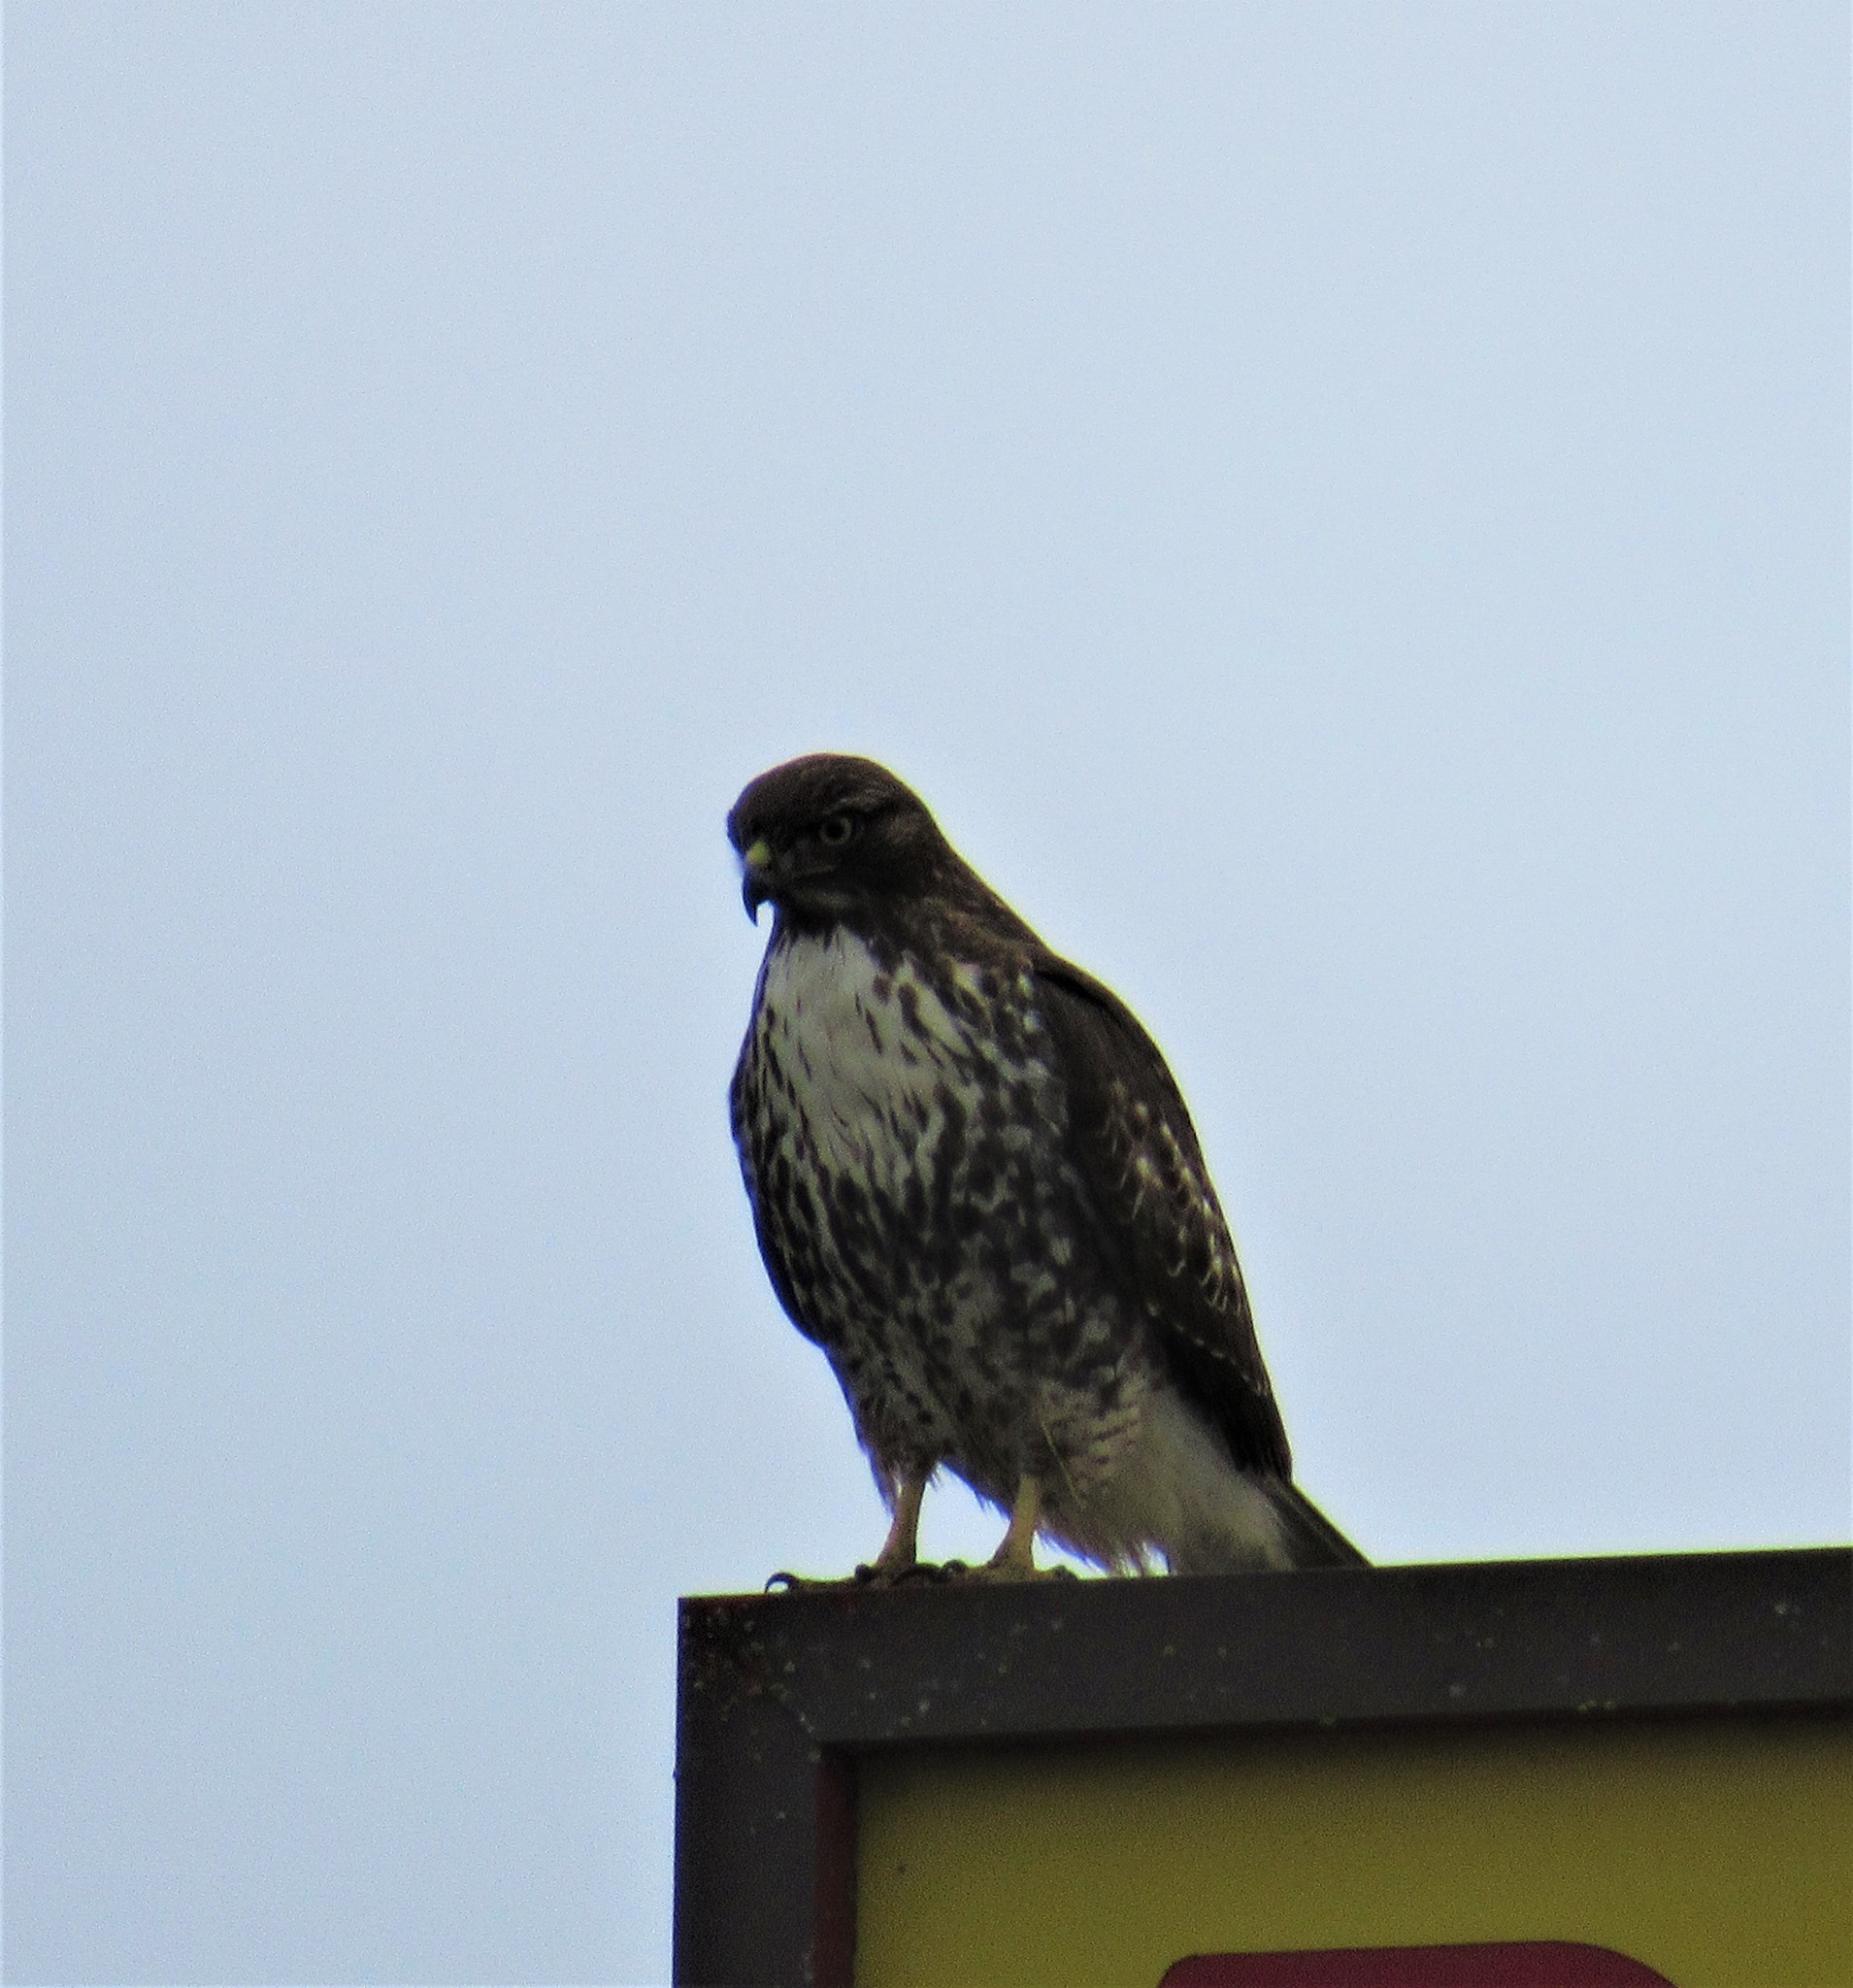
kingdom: Animalia
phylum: Chordata
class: Aves
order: Accipitriformes
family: Accipitridae
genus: Buteo
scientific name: Buteo jamaicensis
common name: Red-tailed hawk
